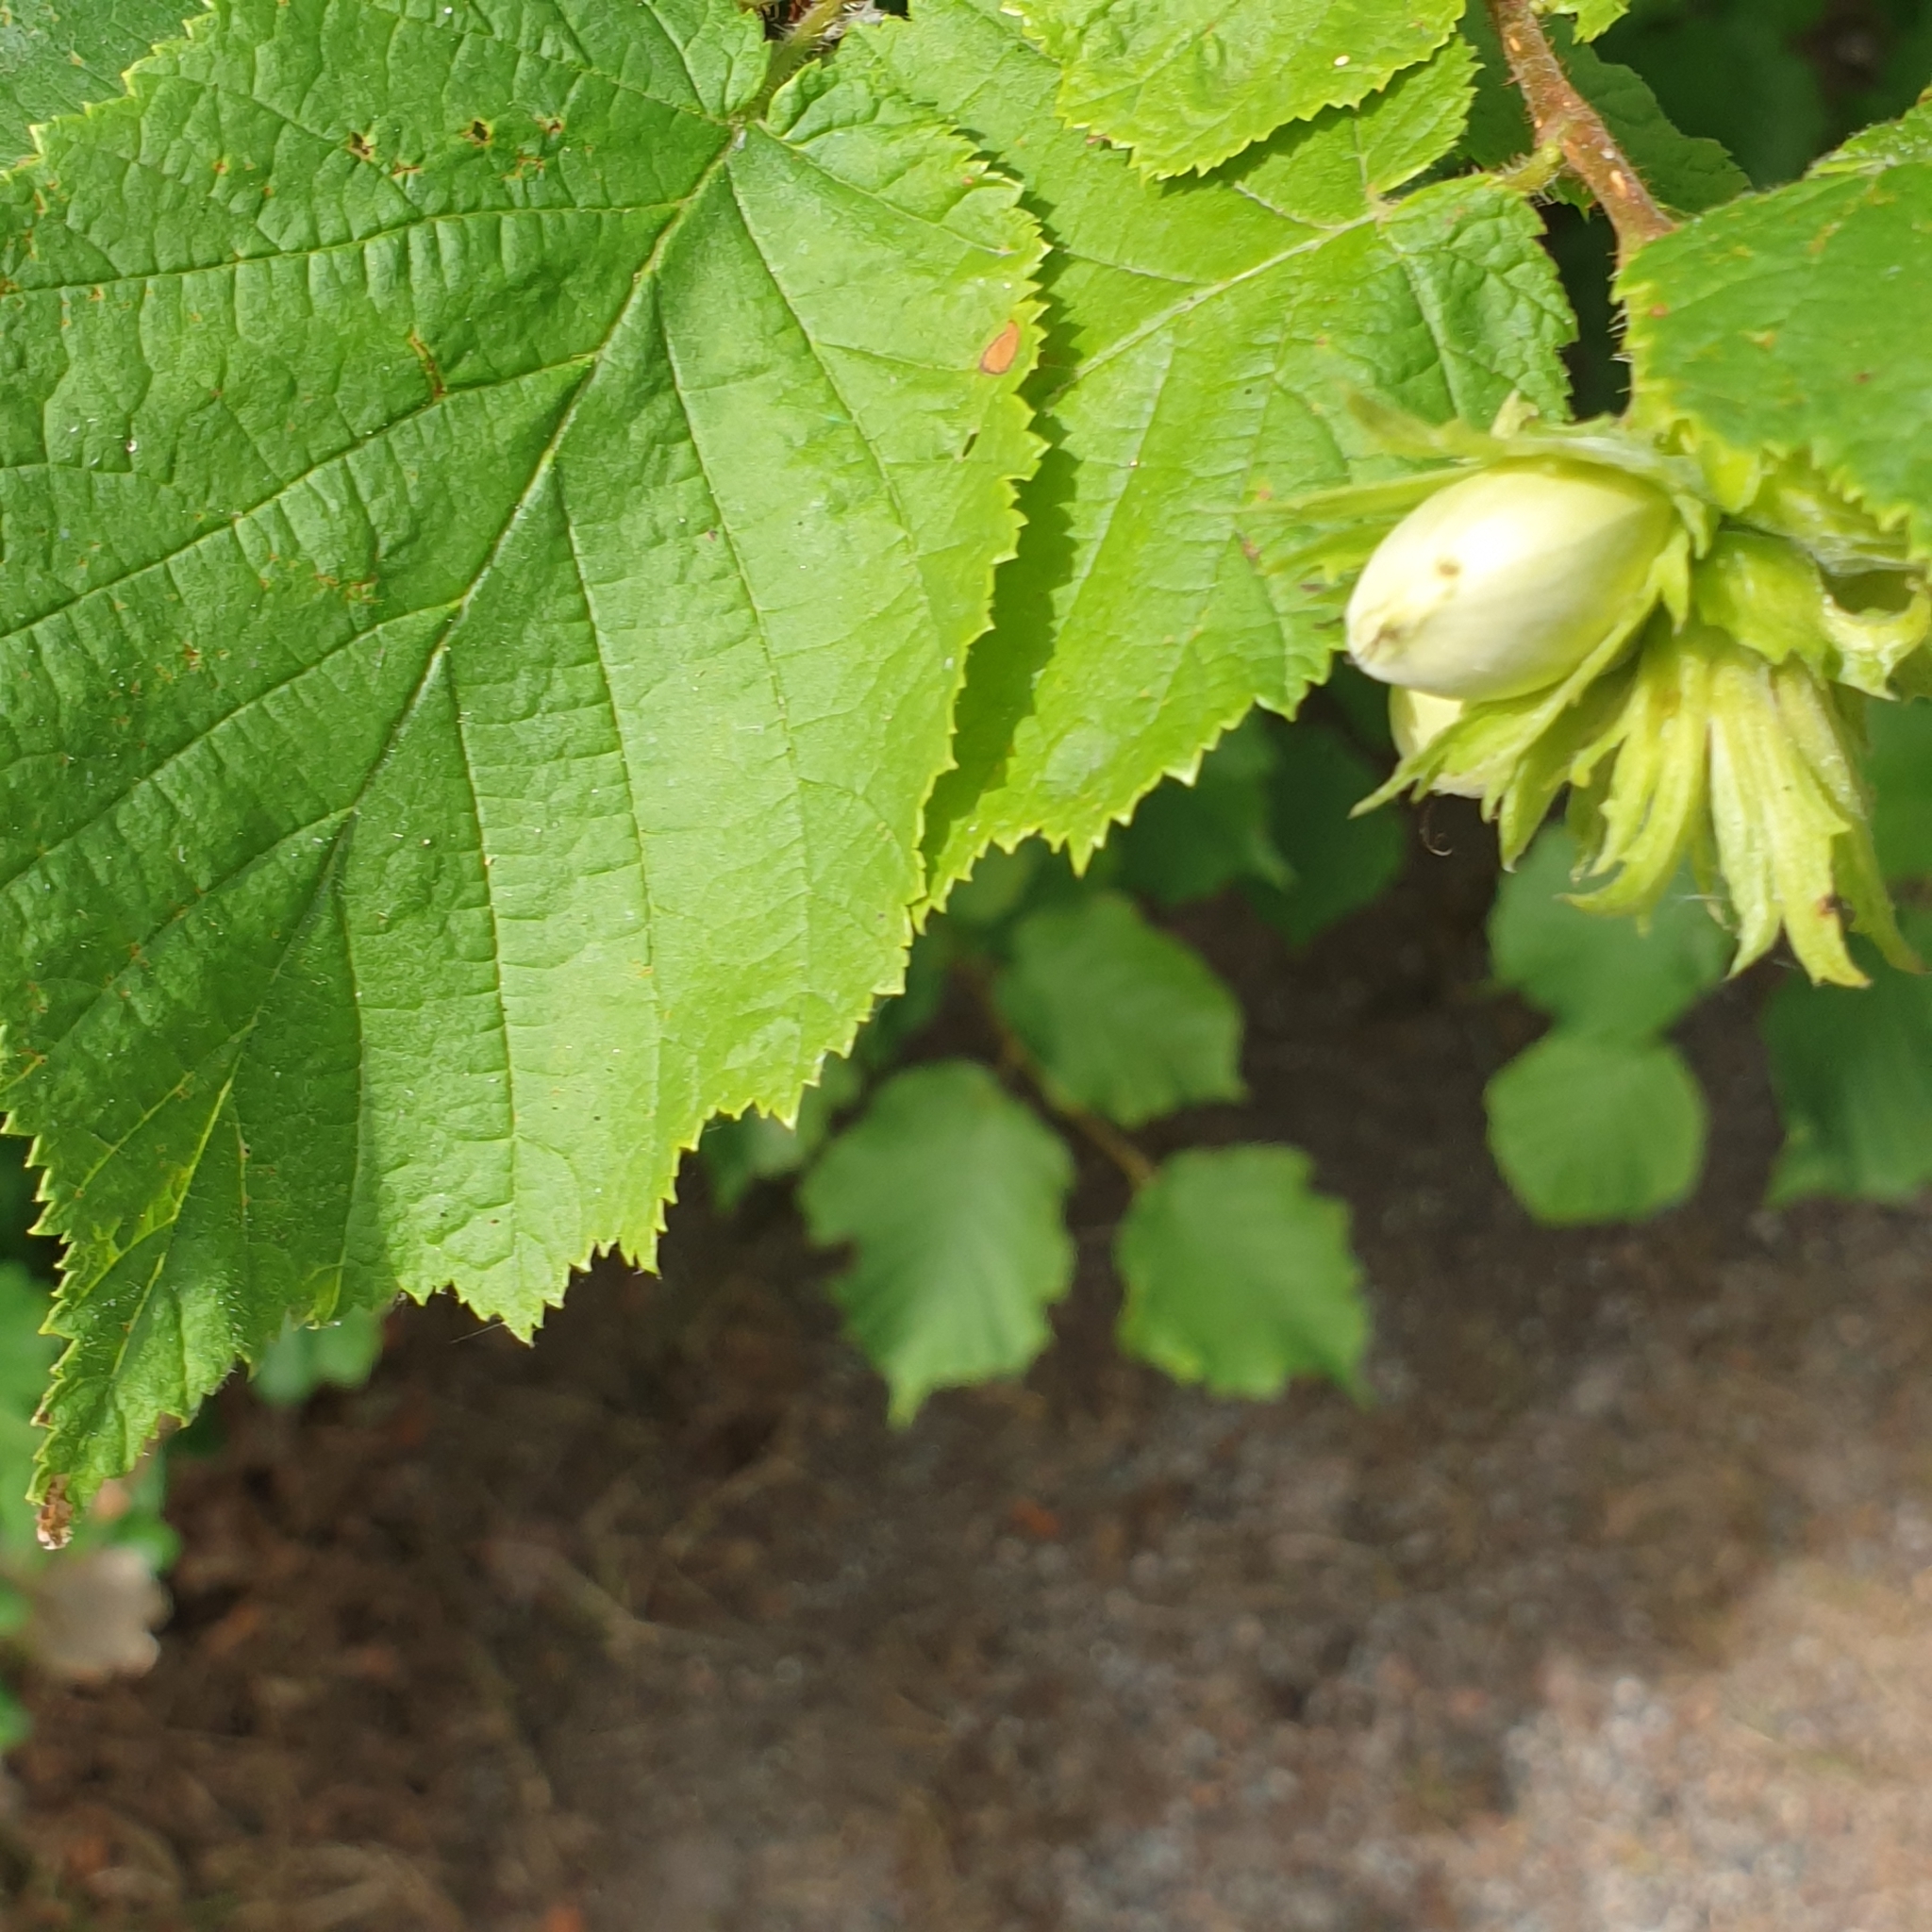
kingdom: Plantae
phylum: Tracheophyta
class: Magnoliopsida
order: Fagales
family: Betulaceae
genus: Corylus
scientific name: Corylus avellana
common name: European hazel
